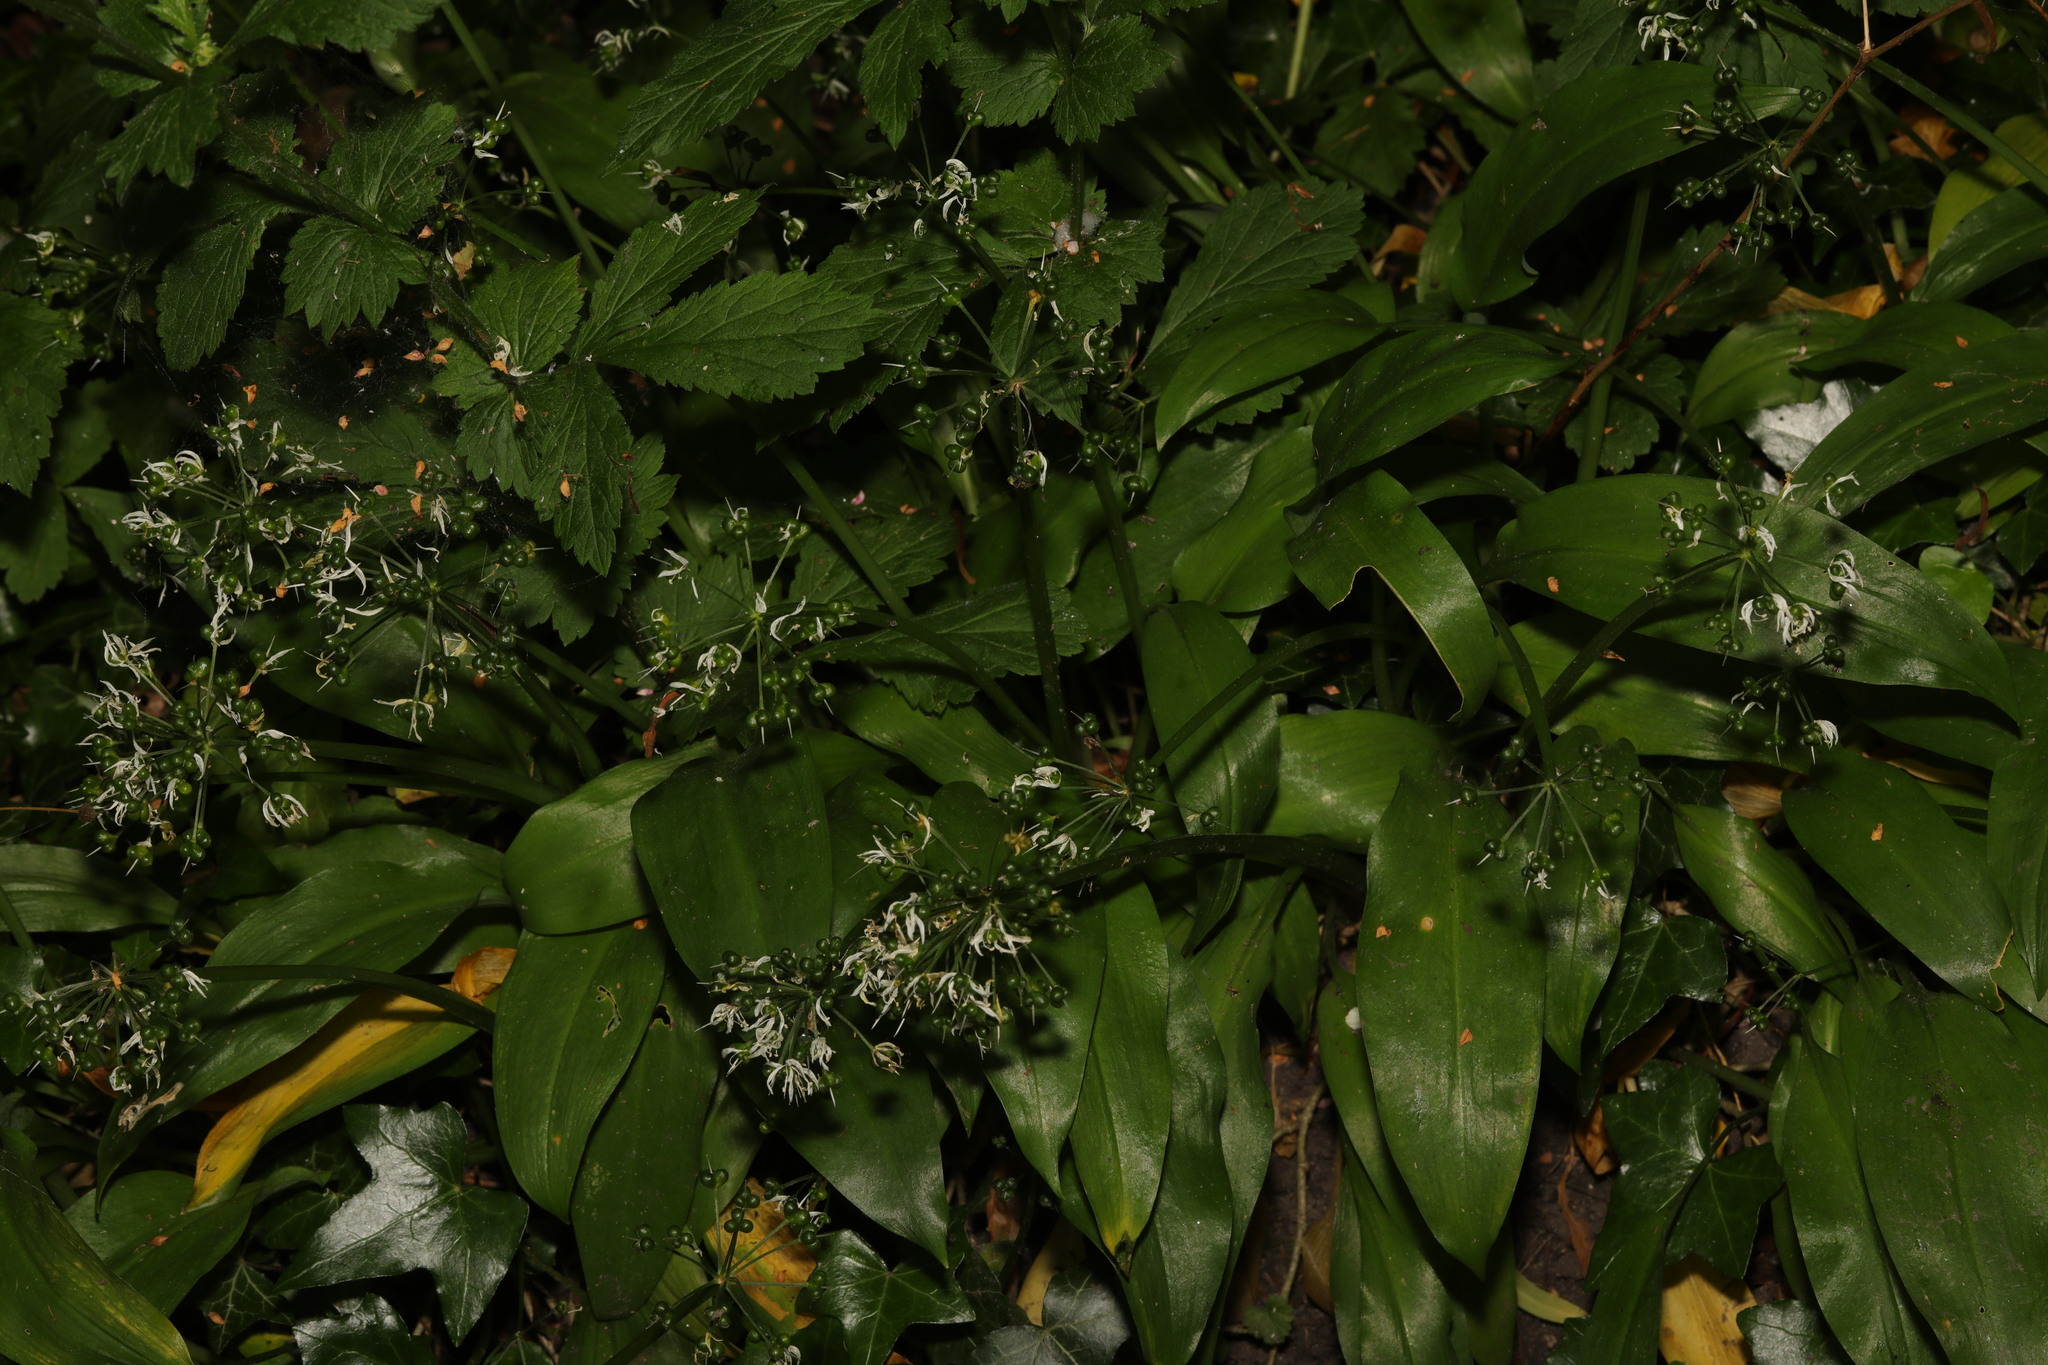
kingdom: Plantae
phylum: Tracheophyta
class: Liliopsida
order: Asparagales
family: Amaryllidaceae
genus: Allium
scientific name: Allium ursinum
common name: Ramsons
